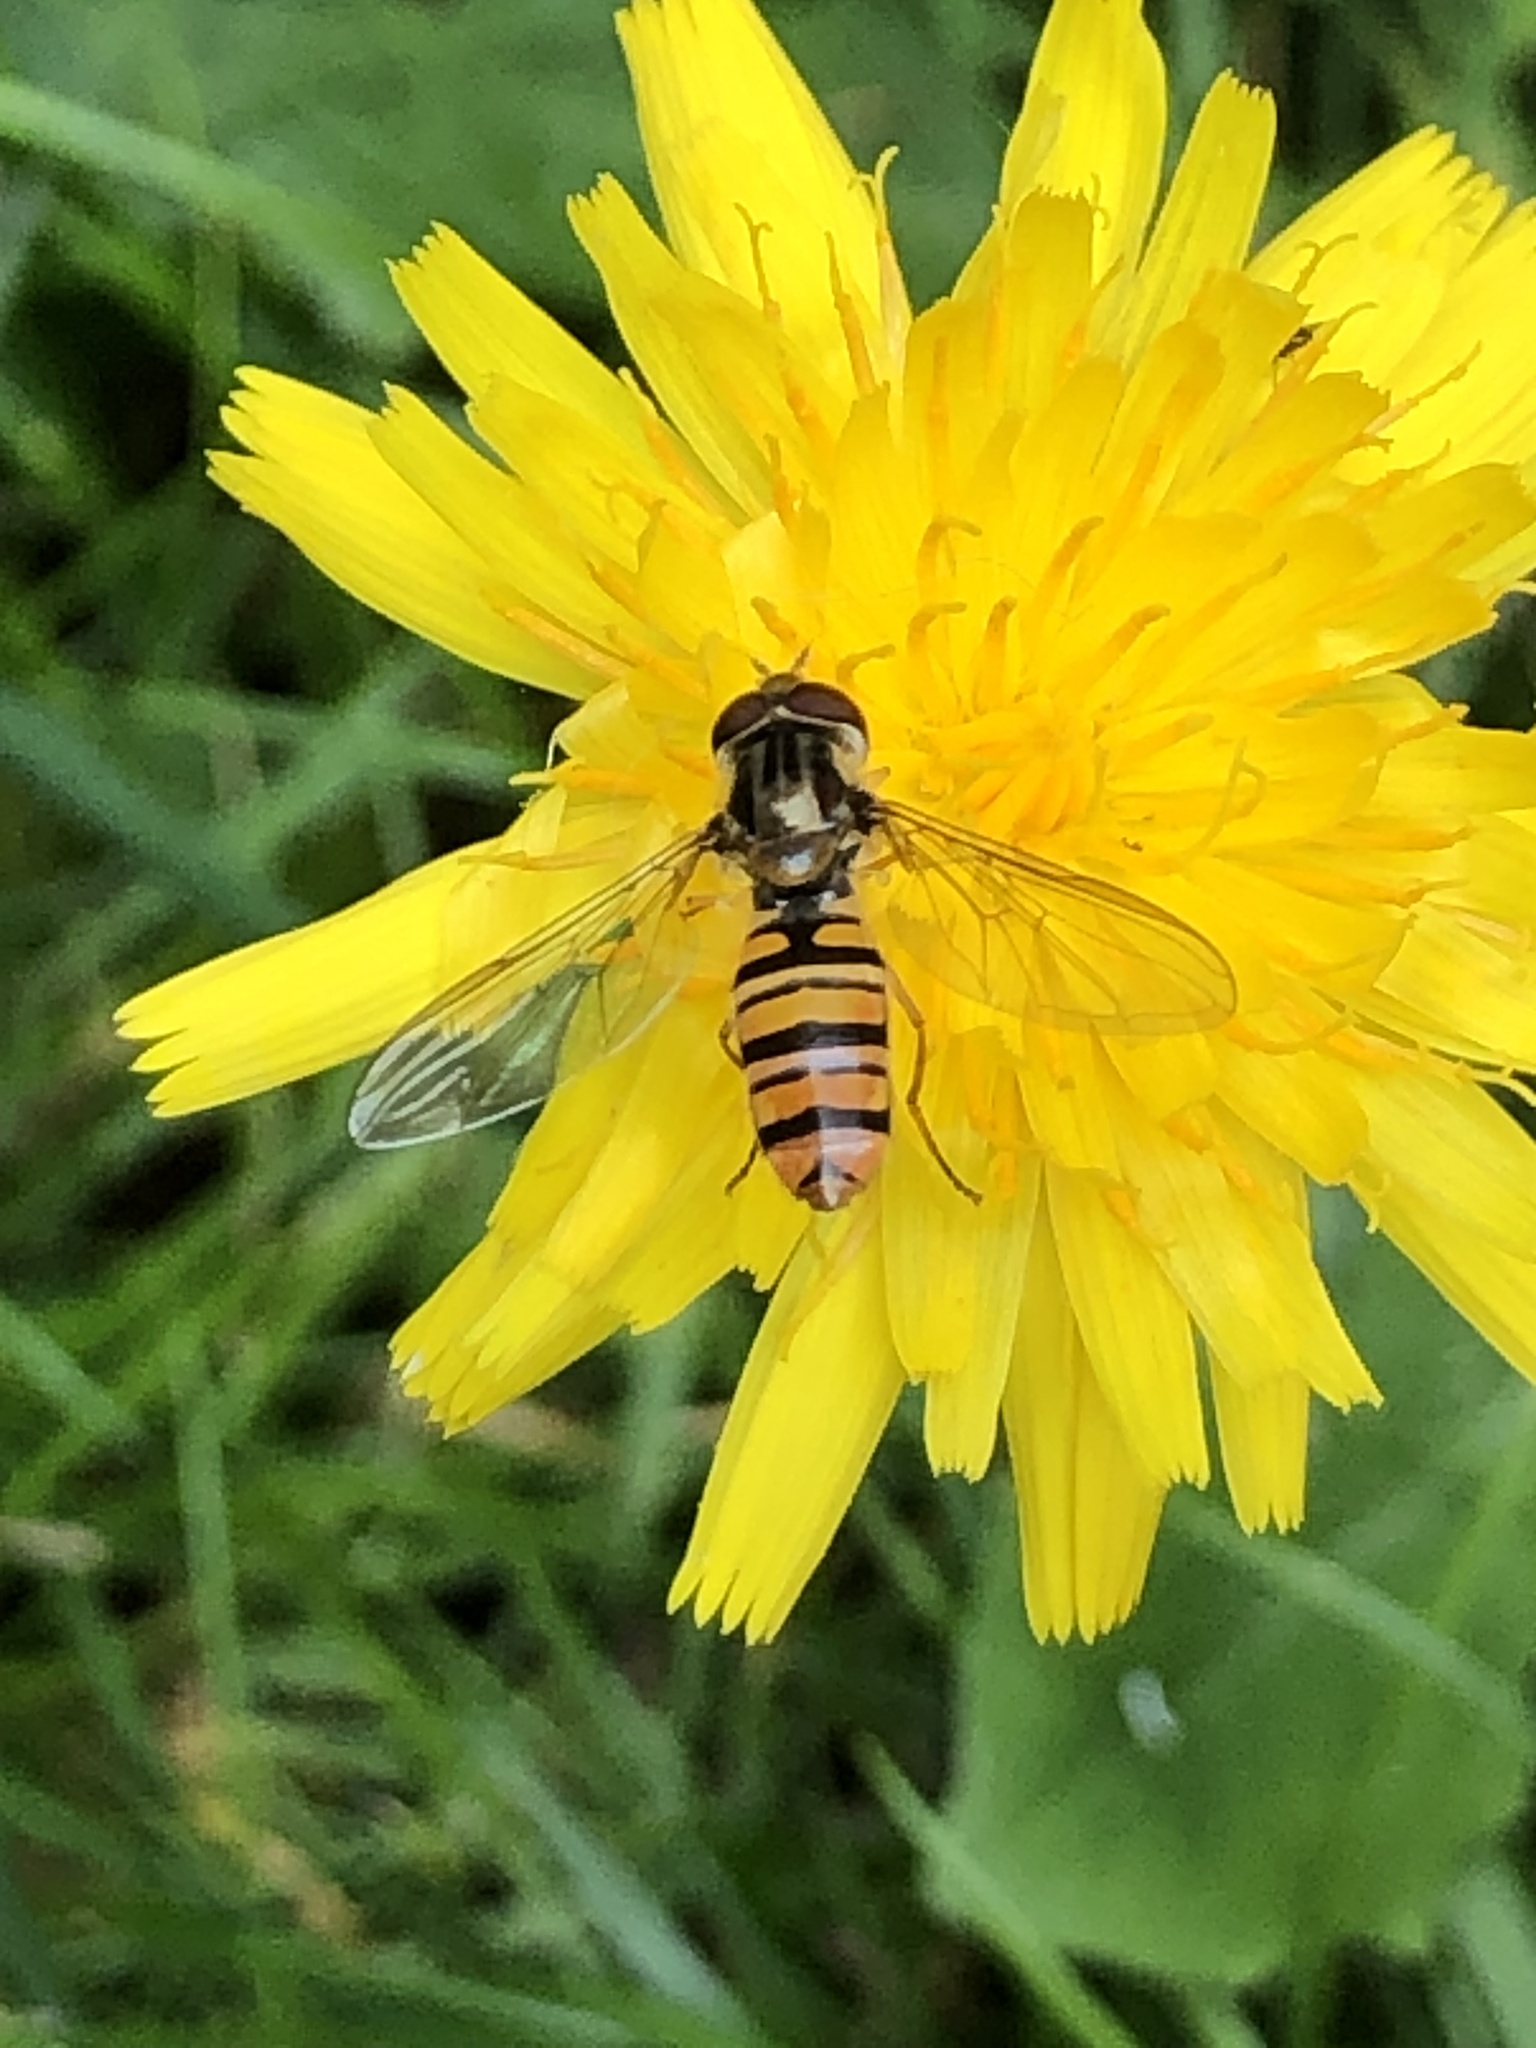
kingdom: Animalia
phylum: Arthropoda
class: Insecta
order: Diptera
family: Syrphidae
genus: Episyrphus
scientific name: Episyrphus balteatus
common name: Marmalade hoverfly
